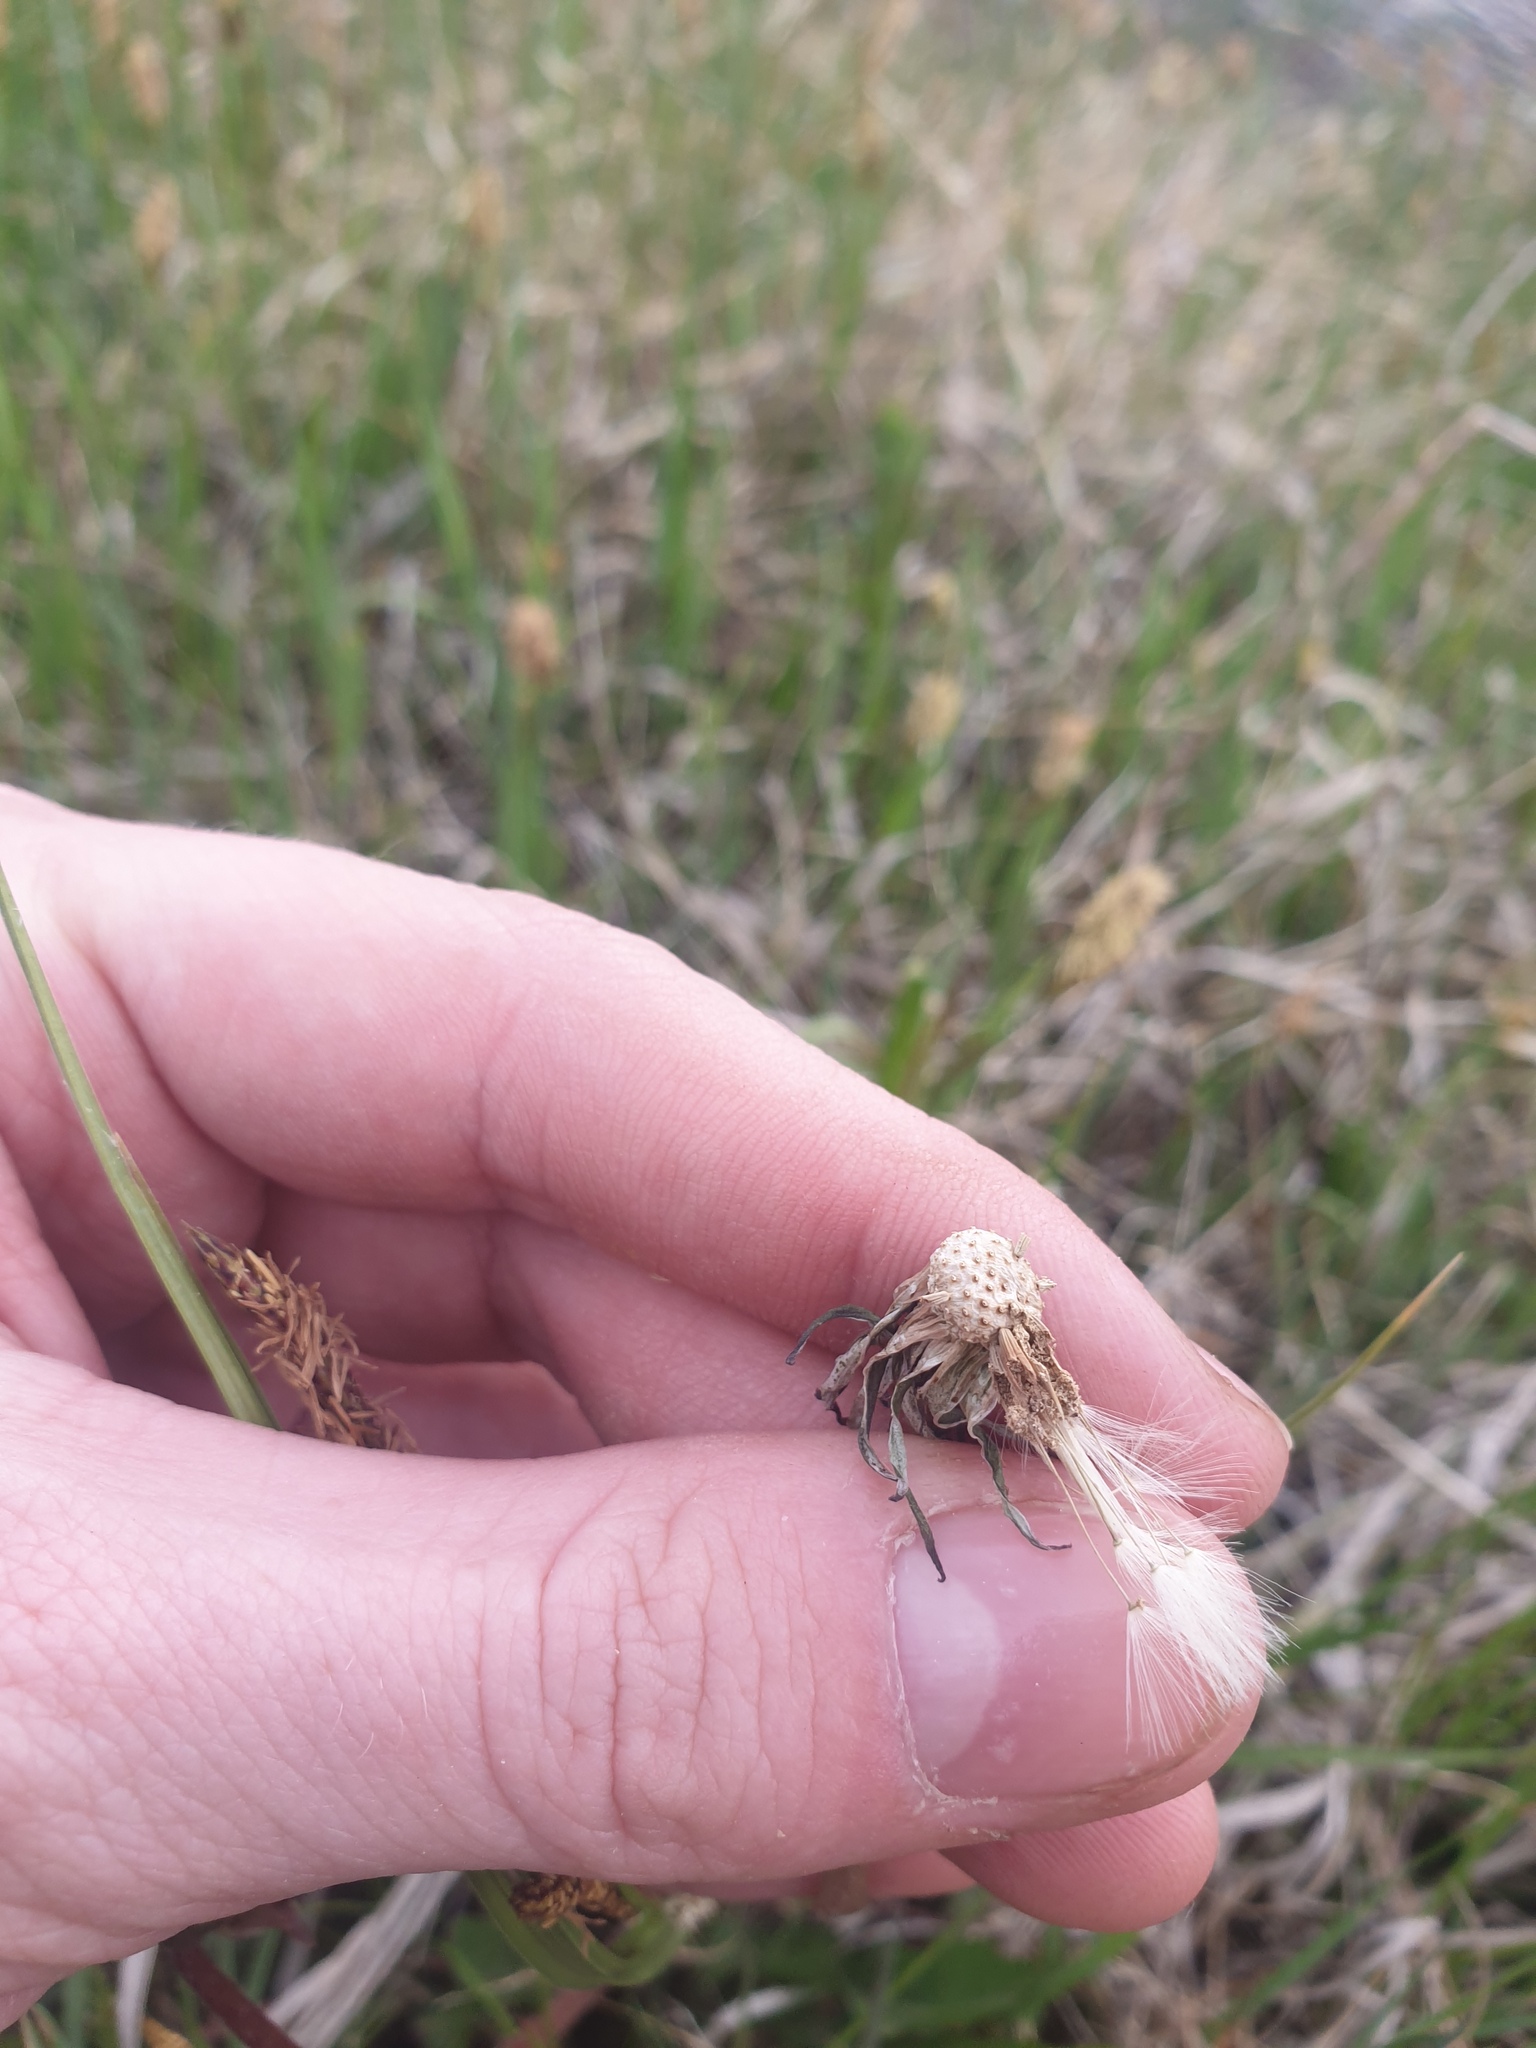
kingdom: Plantae
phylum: Tracheophyta
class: Magnoliopsida
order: Asterales
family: Asteraceae
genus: Taraxacum
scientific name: Taraxacum officinale
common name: Common dandelion
